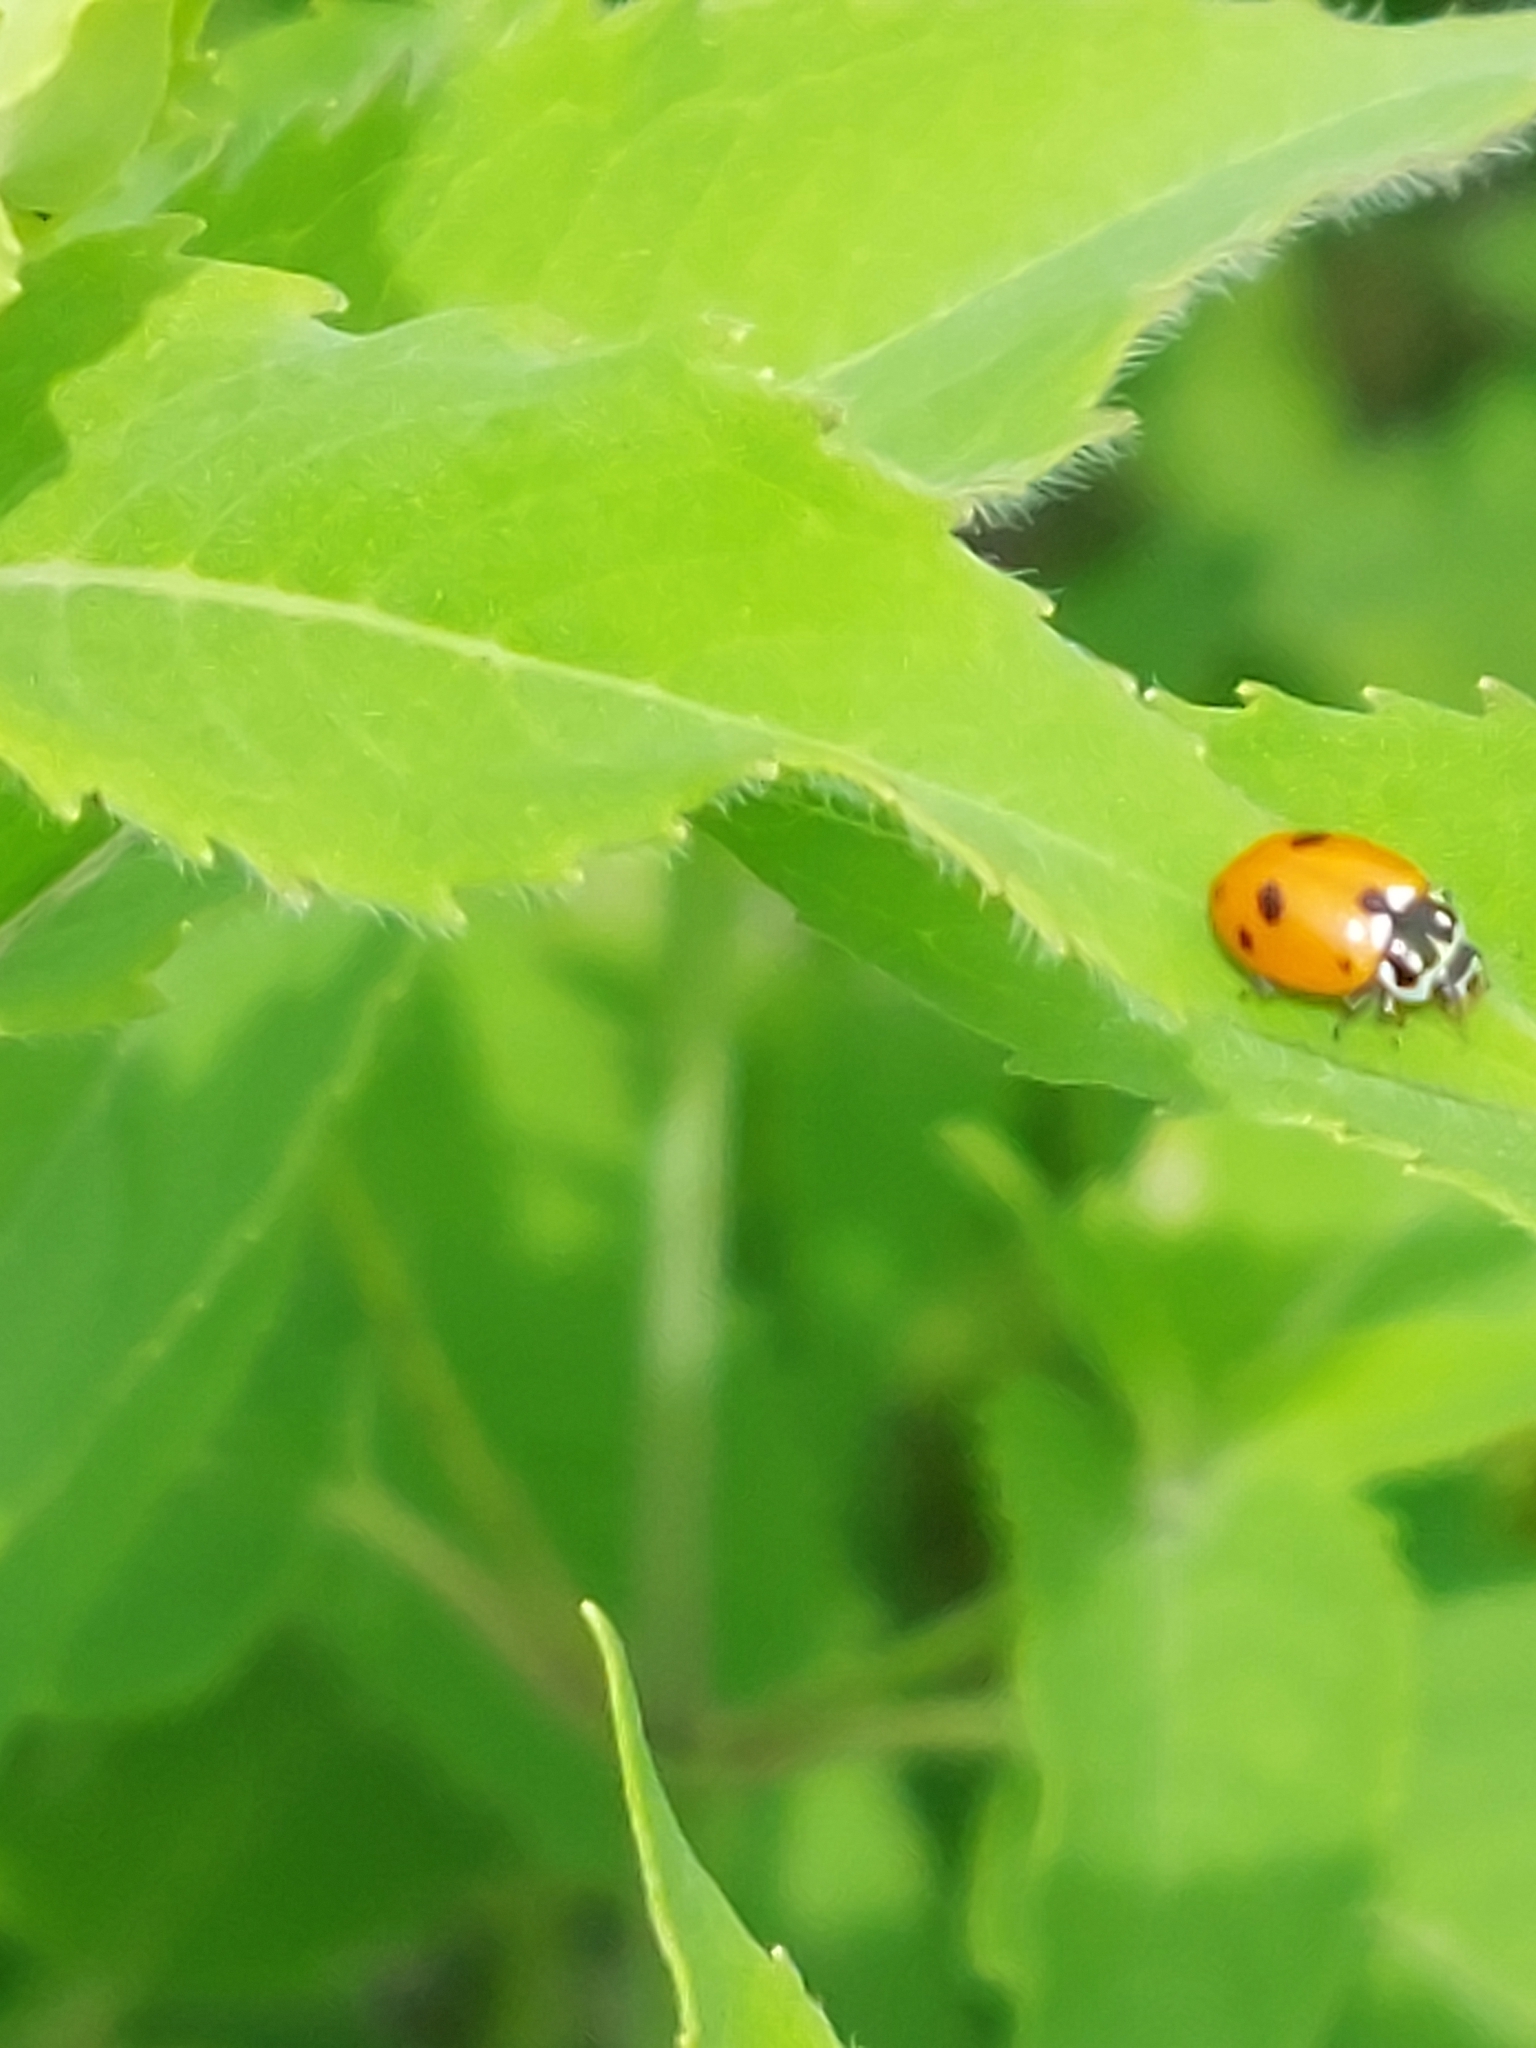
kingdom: Animalia
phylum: Arthropoda
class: Insecta
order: Coleoptera
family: Coccinellidae
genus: Hippodamia
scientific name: Hippodamia variegata
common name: Ladybird beetle
